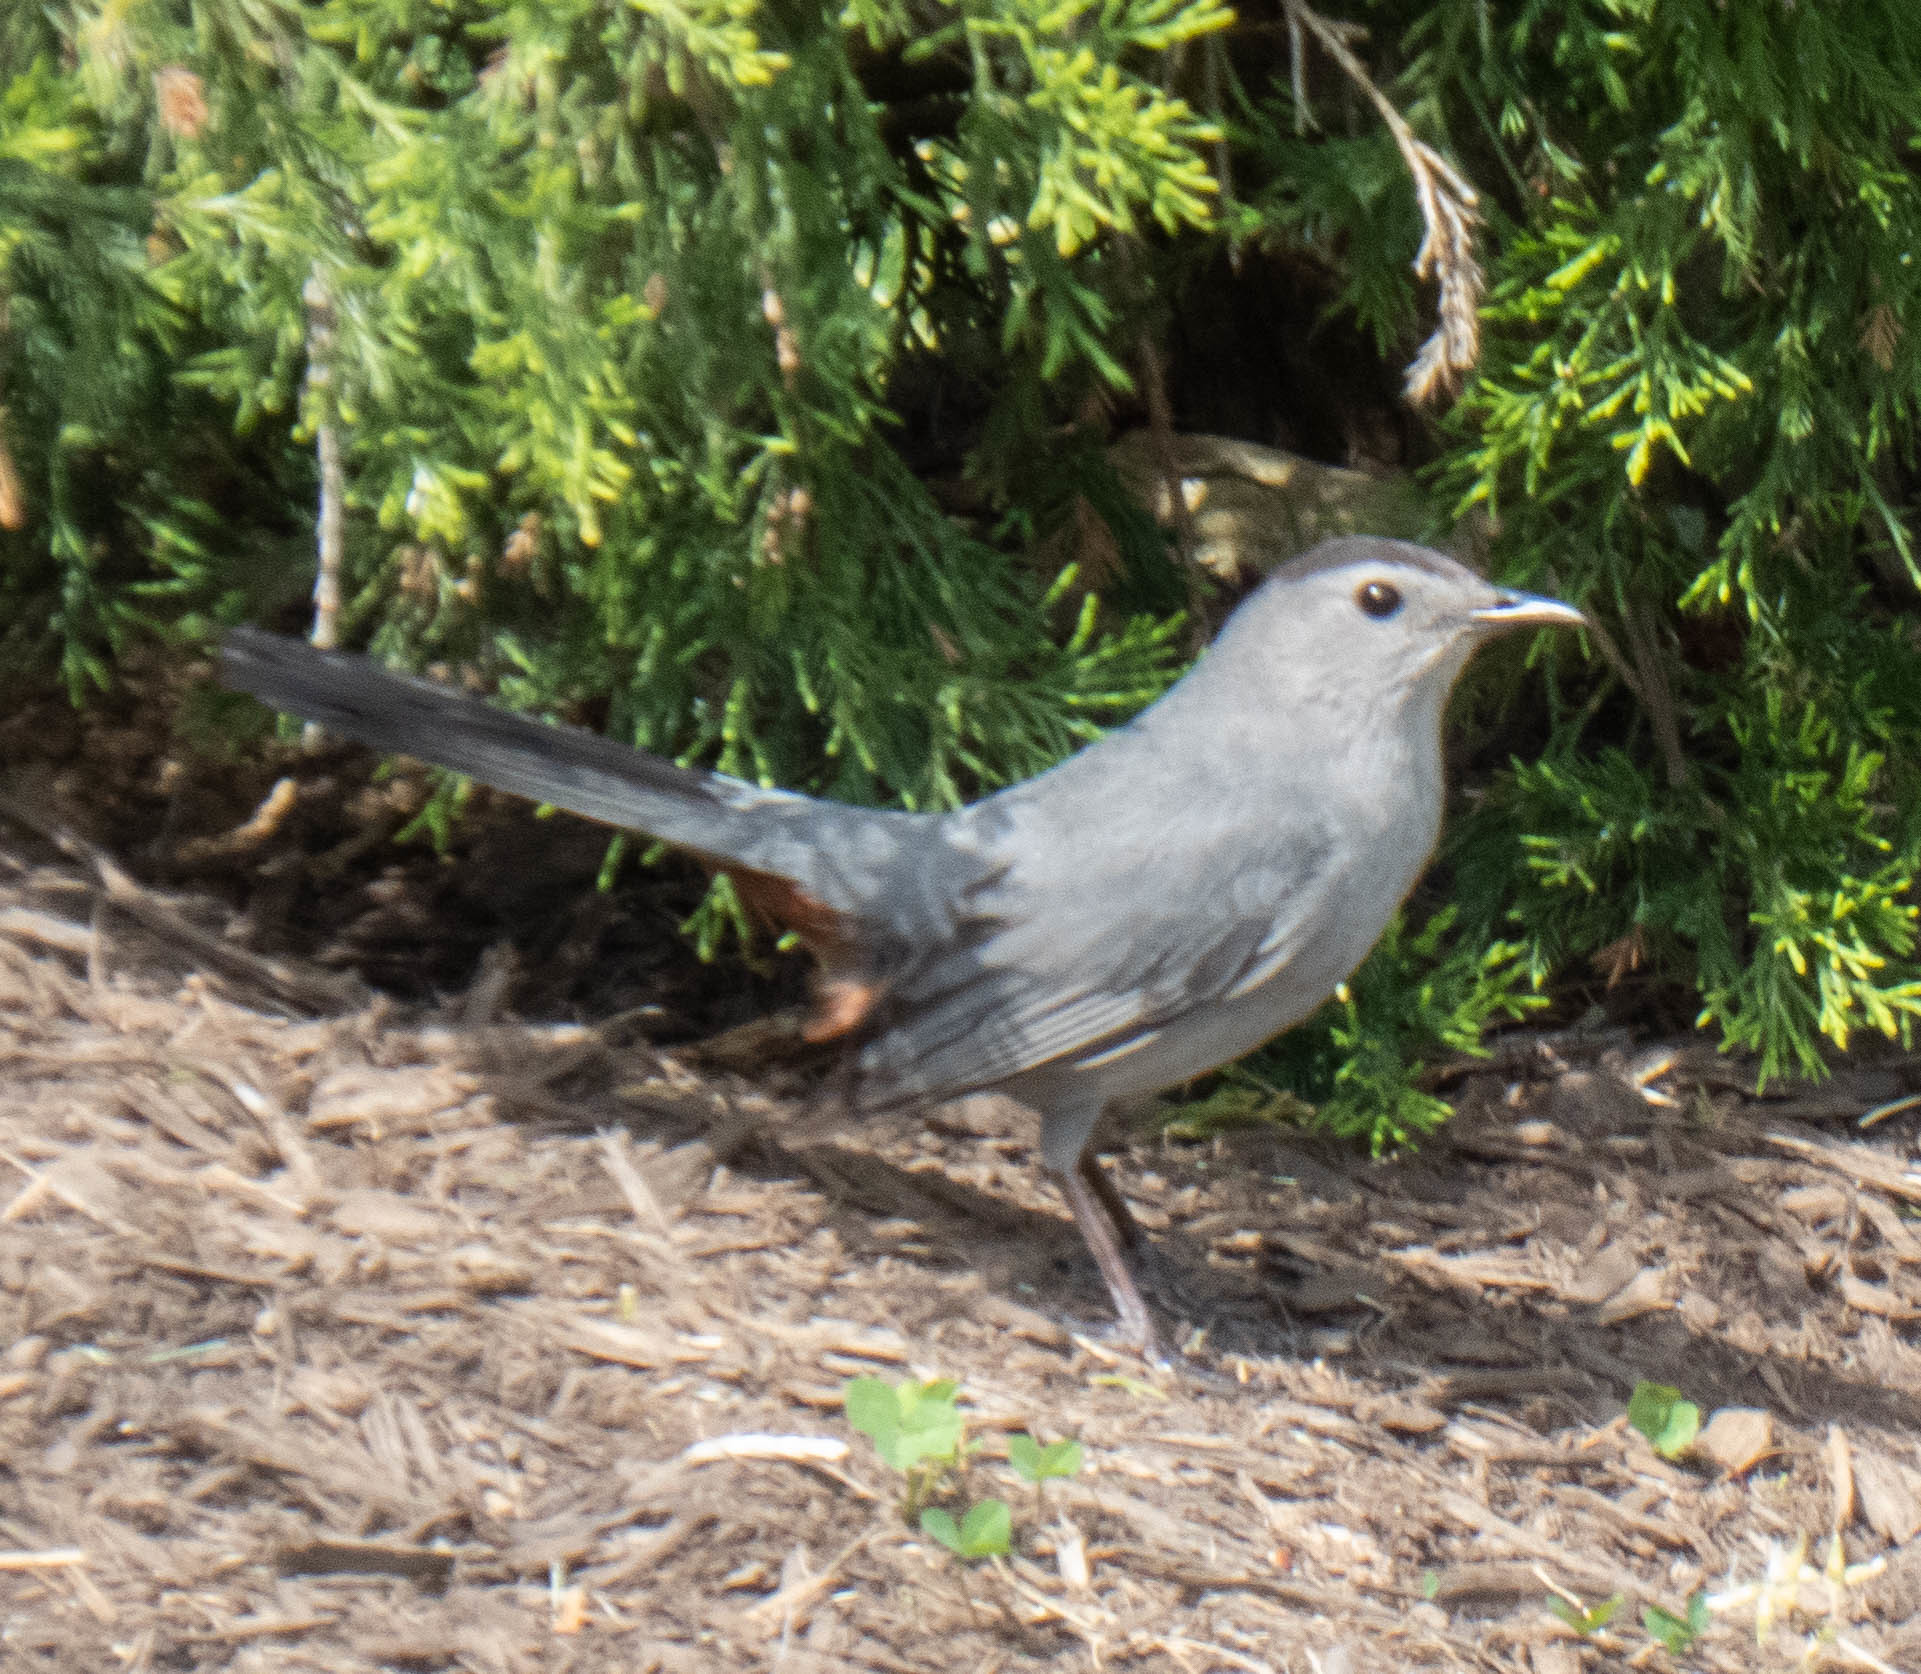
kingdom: Animalia
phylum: Chordata
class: Aves
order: Passeriformes
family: Mimidae
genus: Dumetella
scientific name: Dumetella carolinensis
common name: Gray catbird
